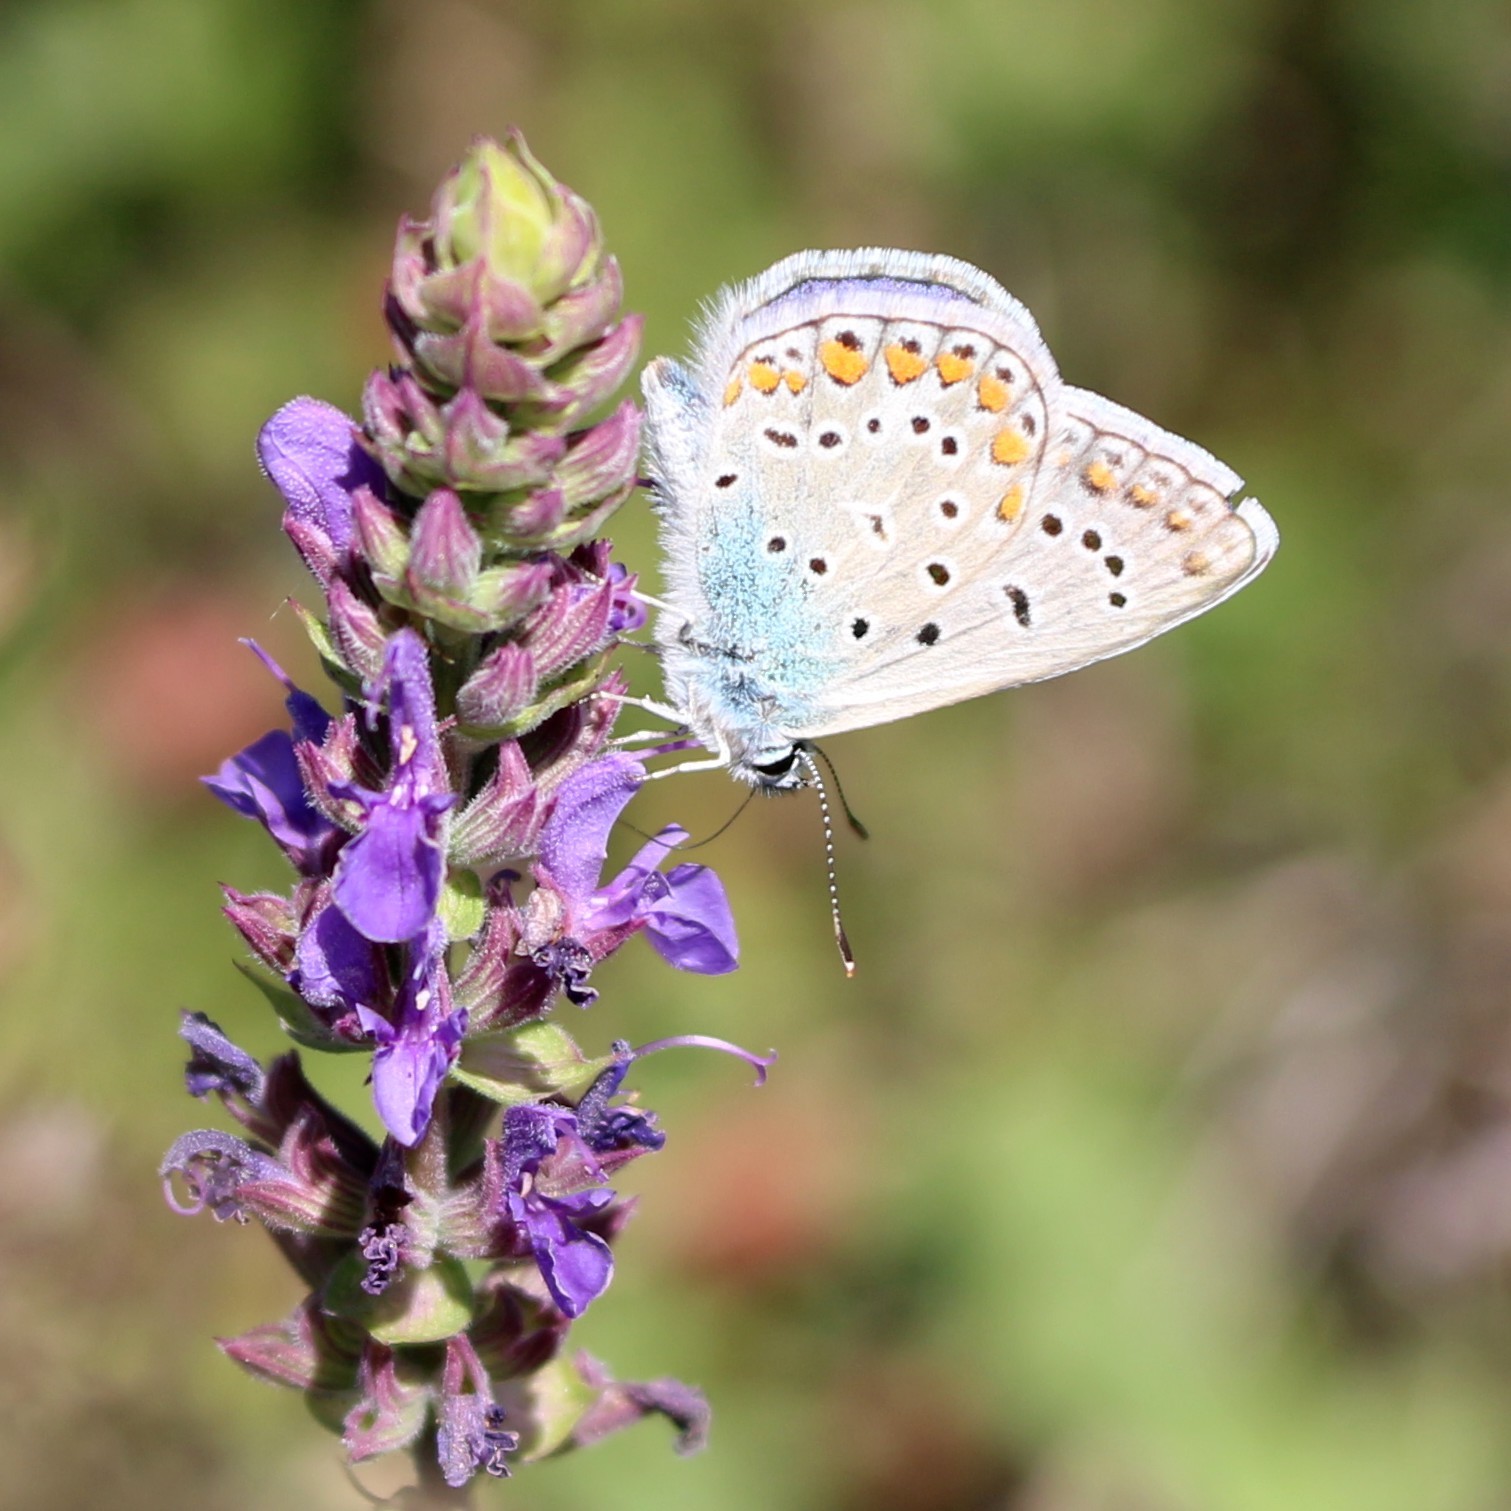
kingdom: Animalia
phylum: Arthropoda
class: Insecta
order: Lepidoptera
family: Lycaenidae
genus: Polyommatus
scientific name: Polyommatus icarus
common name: Common blue
